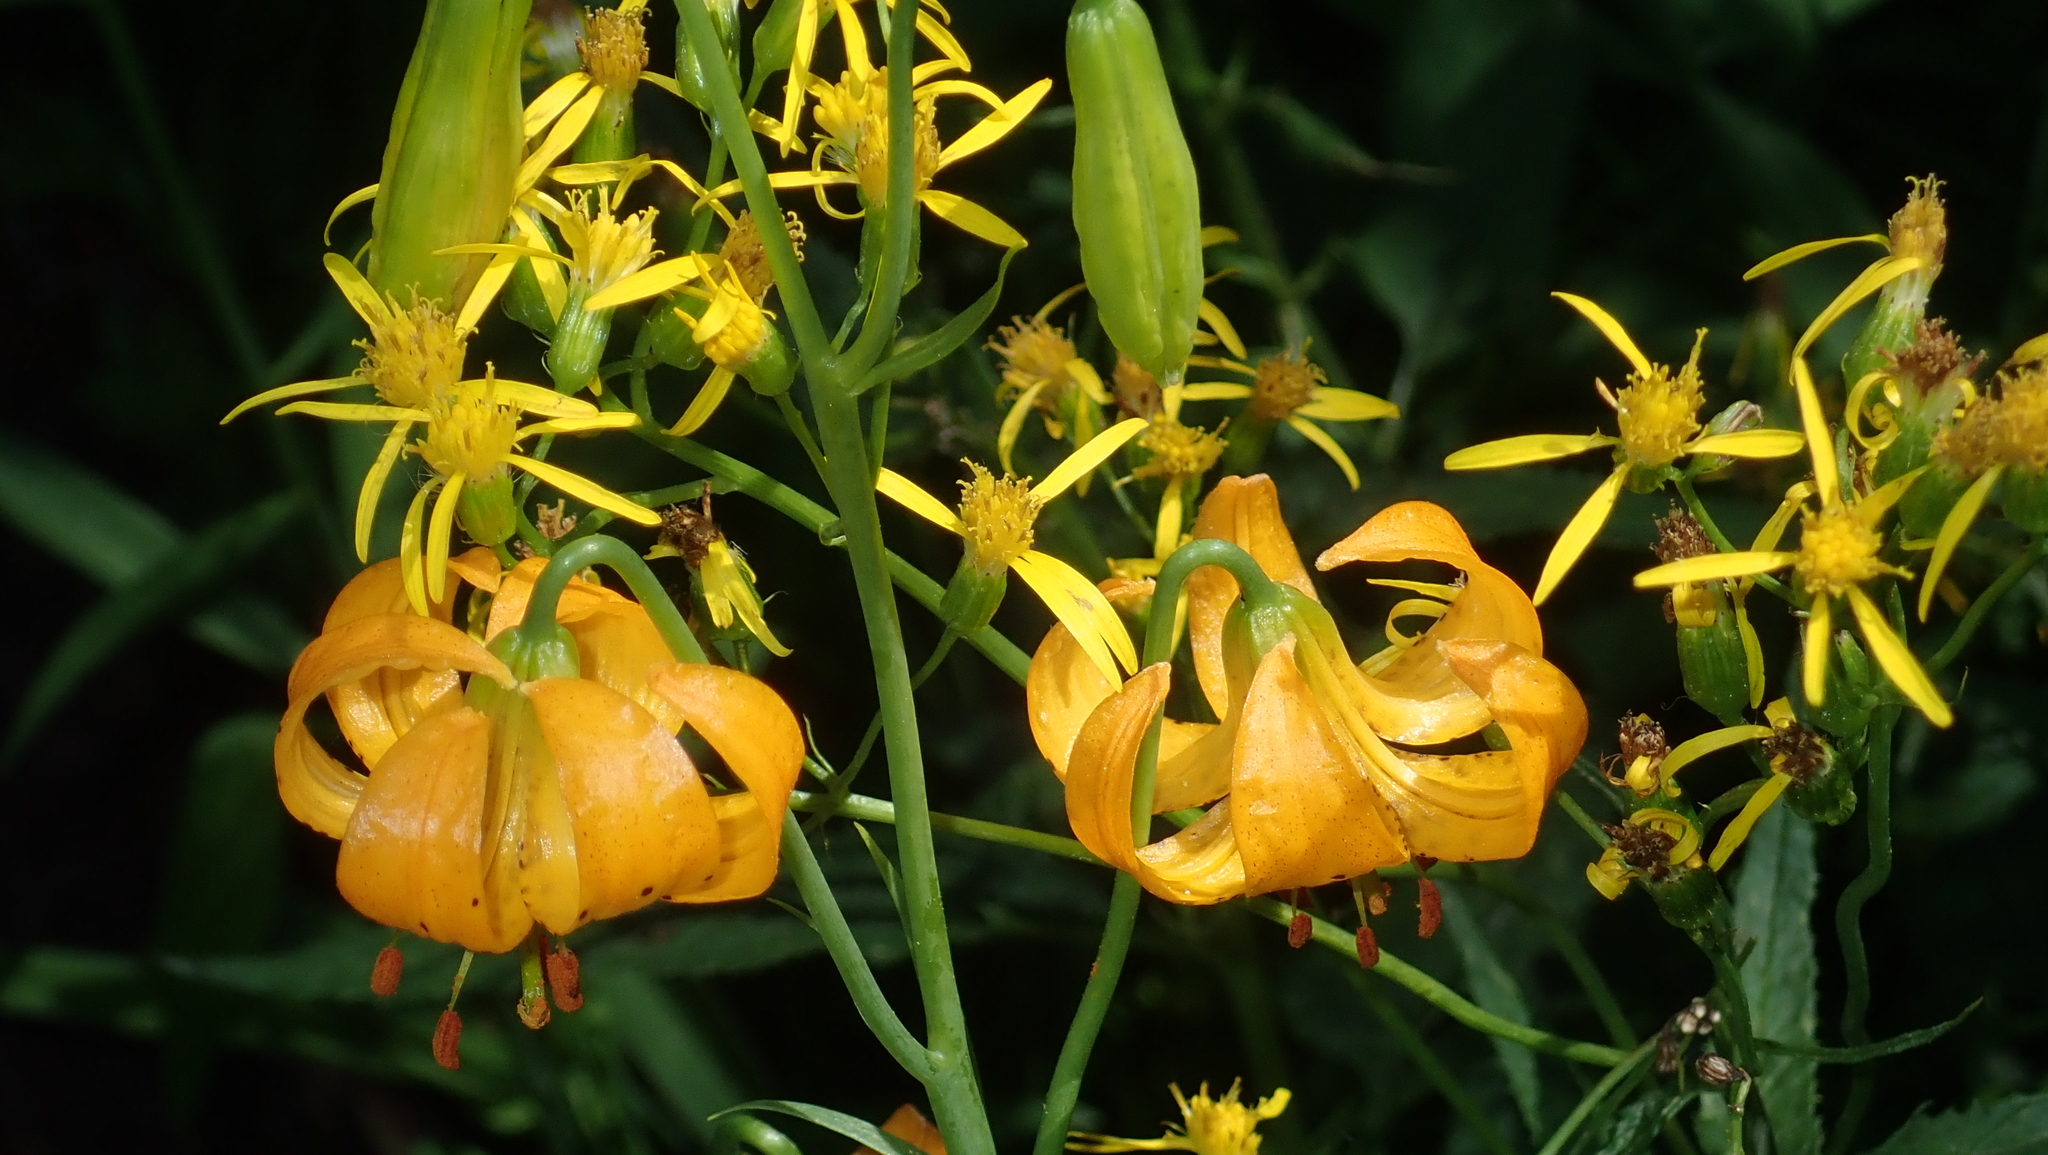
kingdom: Plantae
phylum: Tracheophyta
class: Liliopsida
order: Liliales
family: Liliaceae
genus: Lilium
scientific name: Lilium kelleyanum
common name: Kelley's lily
